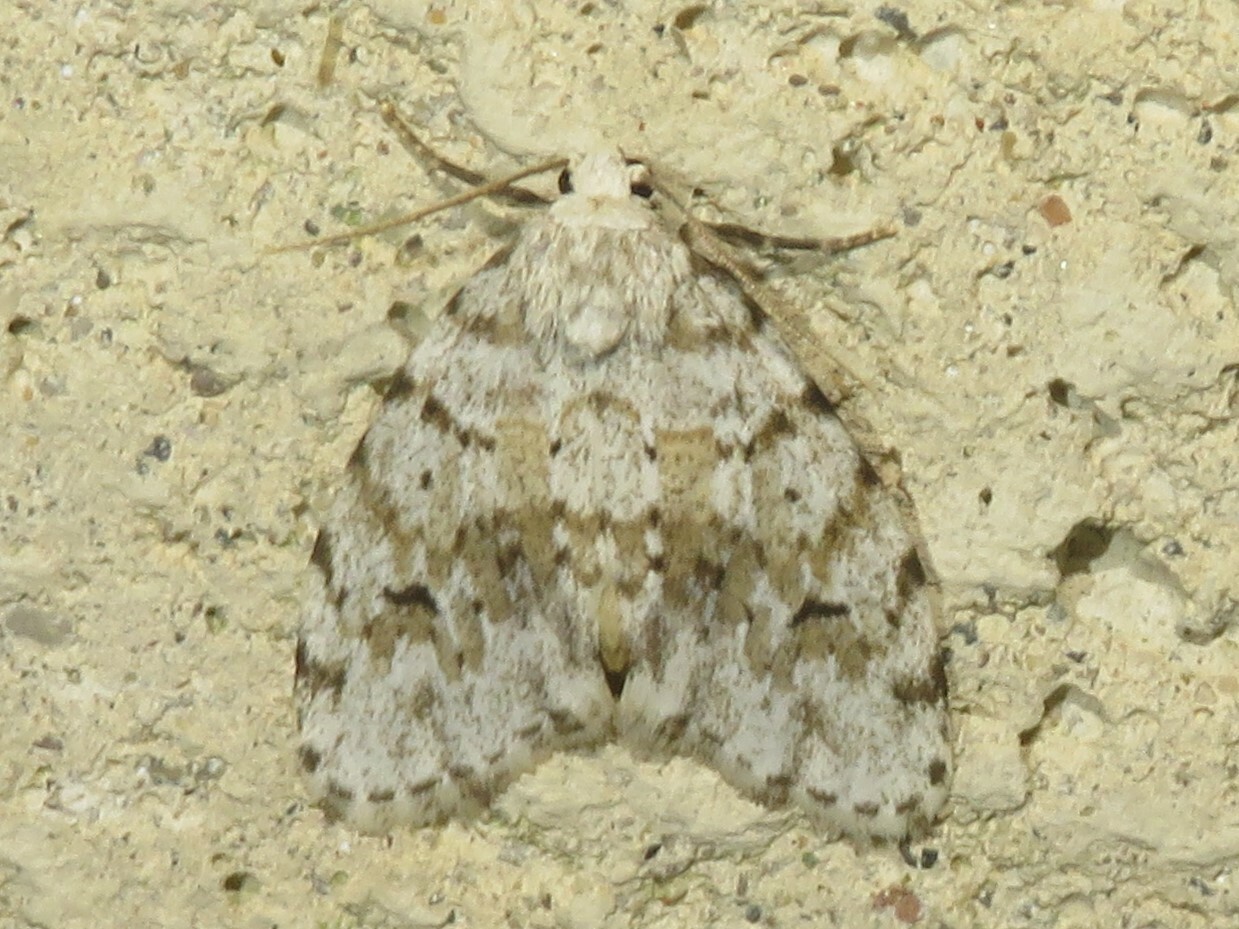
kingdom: Animalia
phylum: Arthropoda
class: Insecta
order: Lepidoptera
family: Erebidae
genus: Clemensia
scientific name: Clemensia umbrata
